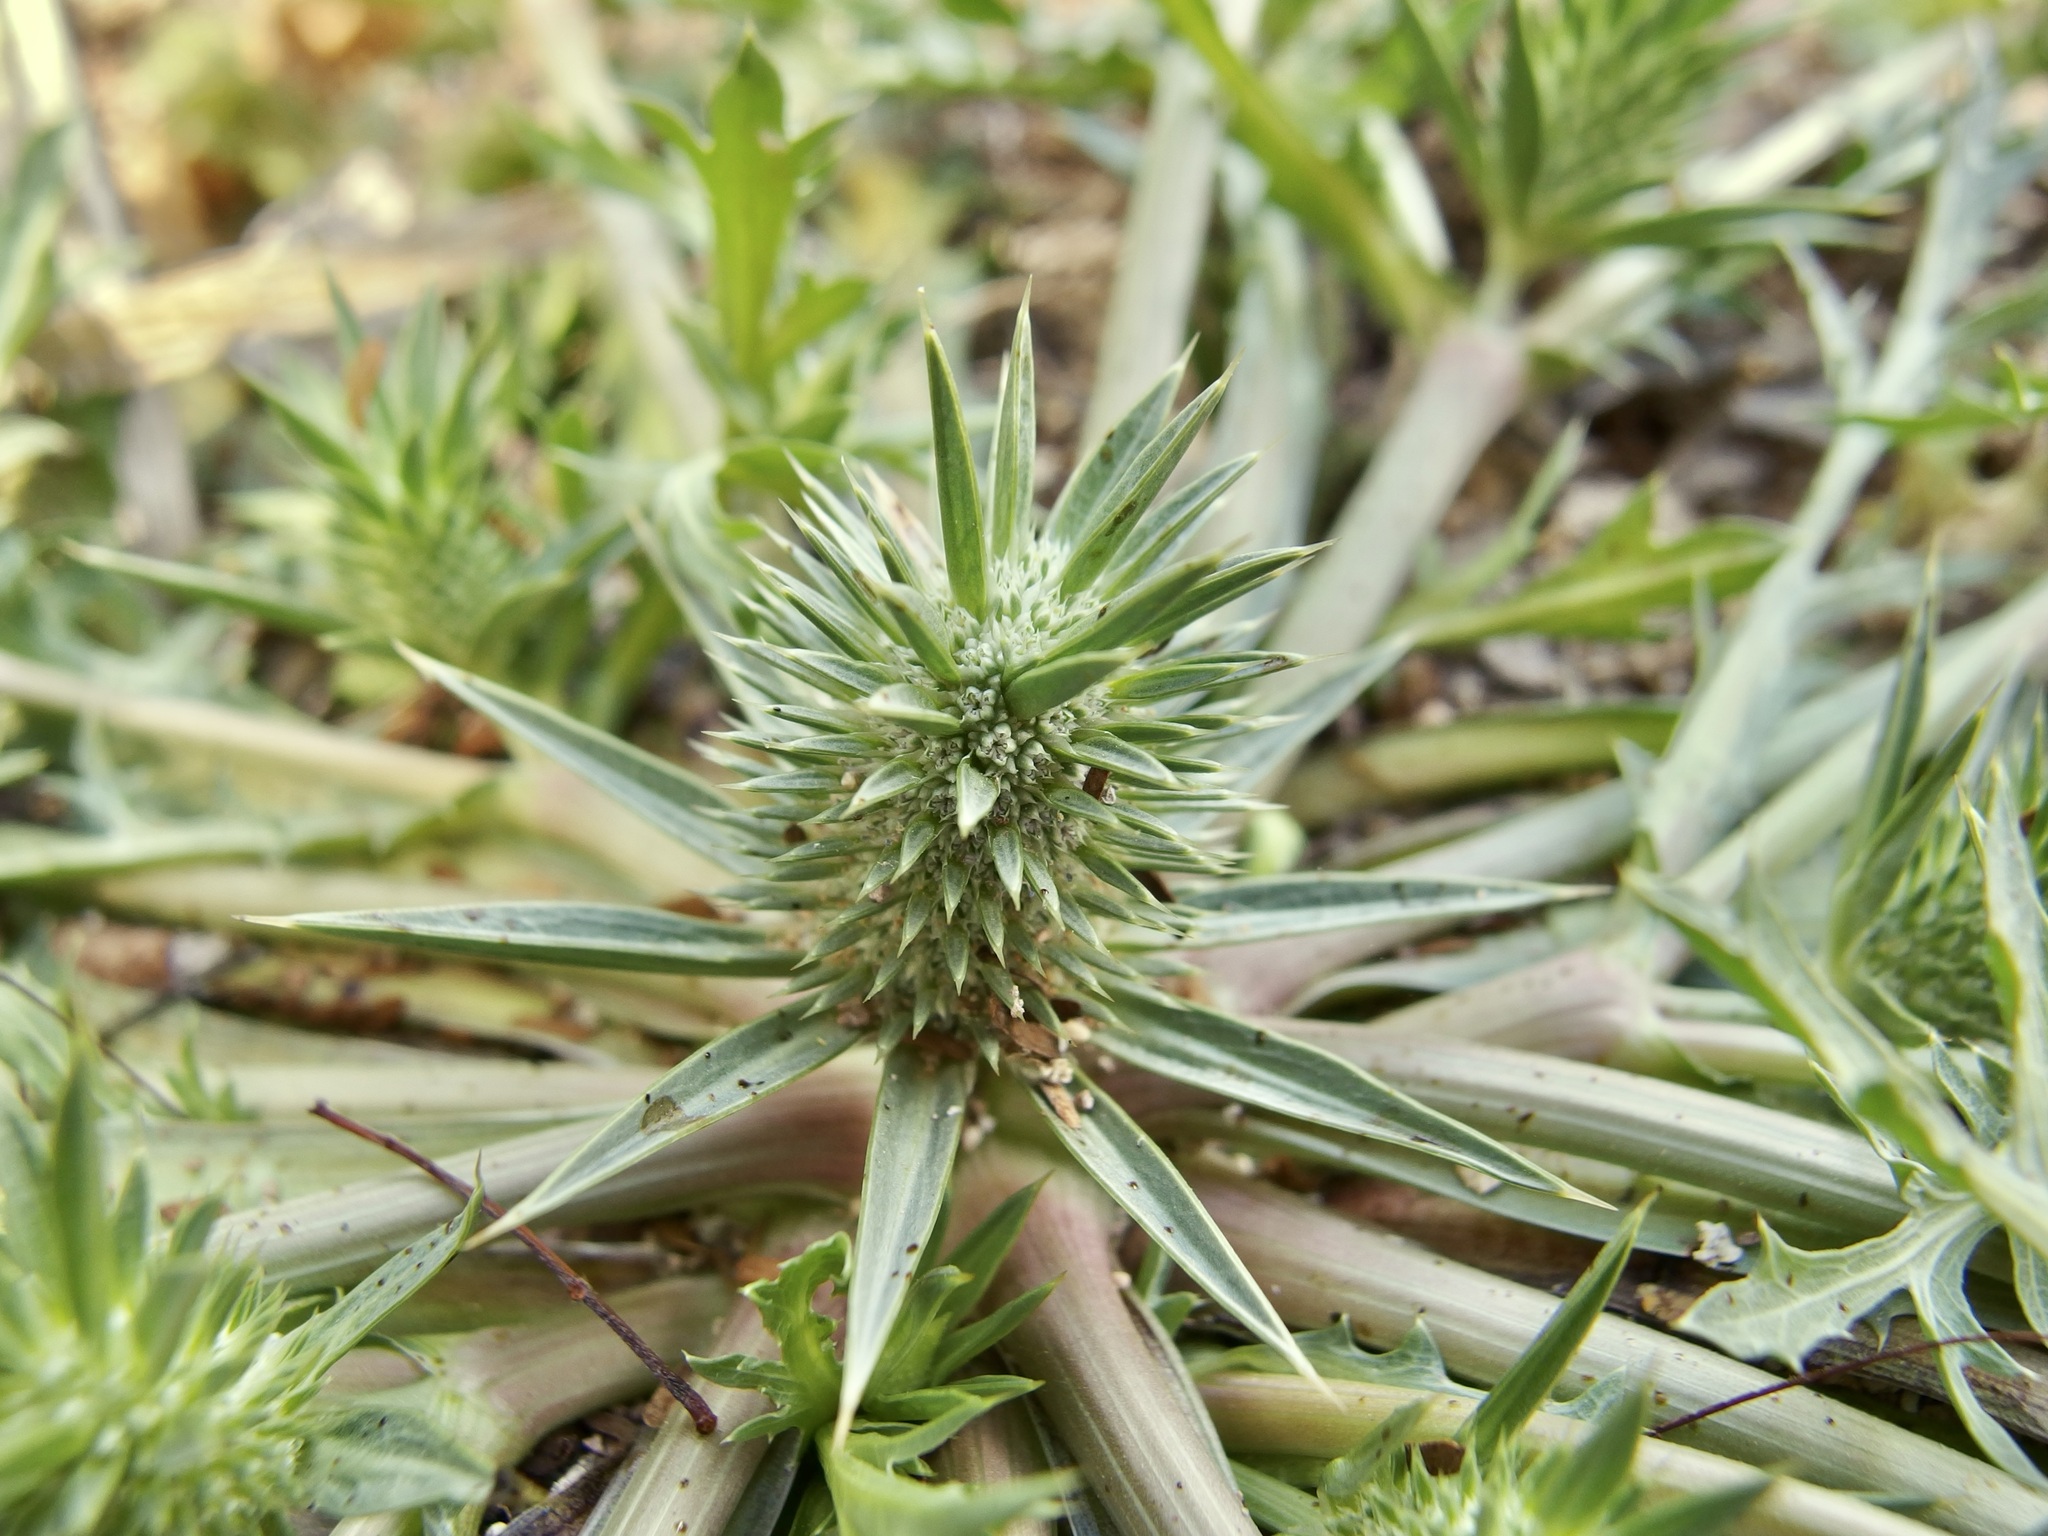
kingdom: Plantae
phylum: Tracheophyta
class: Magnoliopsida
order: Apiales
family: Apiaceae
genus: Eryngium
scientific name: Eryngium nasturtiifolium
